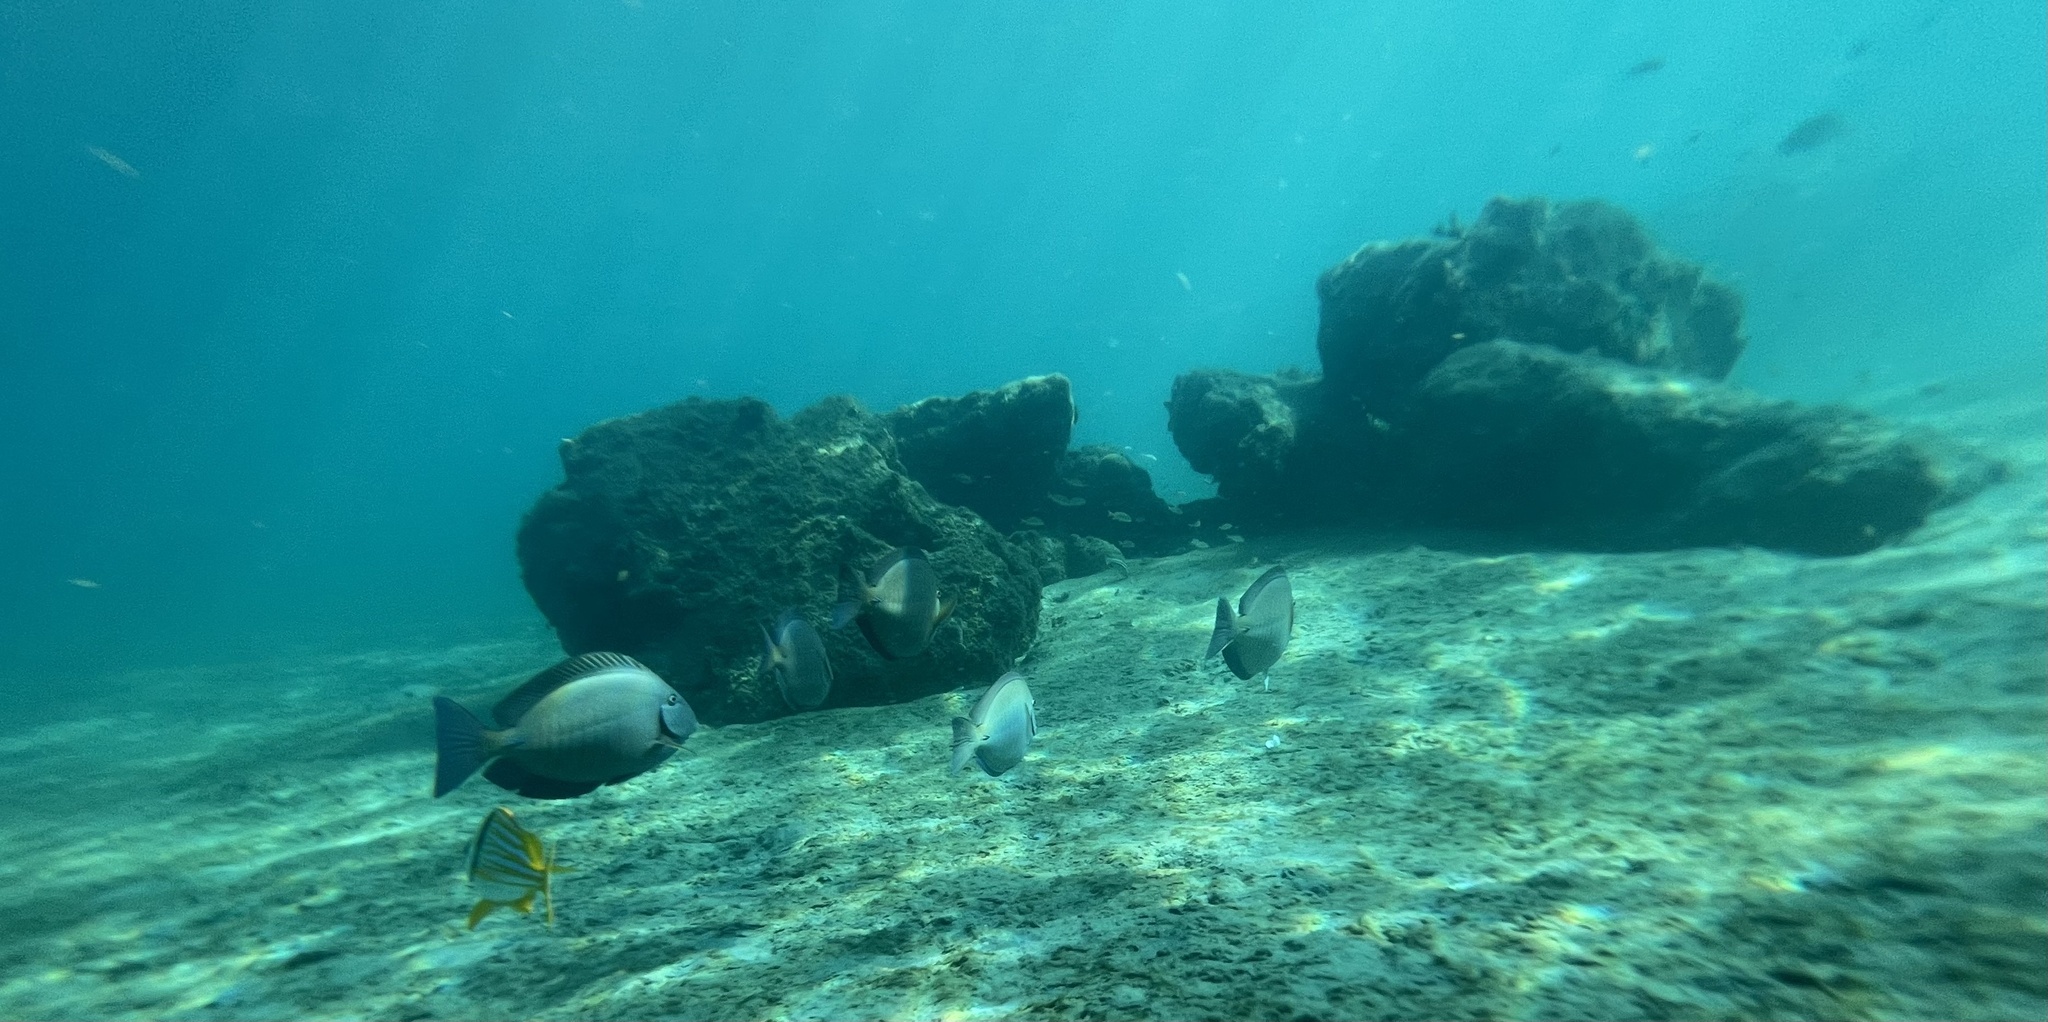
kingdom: Animalia
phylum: Chordata
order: Perciformes
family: Acanthuridae
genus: Acanthurus
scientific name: Acanthurus chirurgus
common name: Doctorfish
